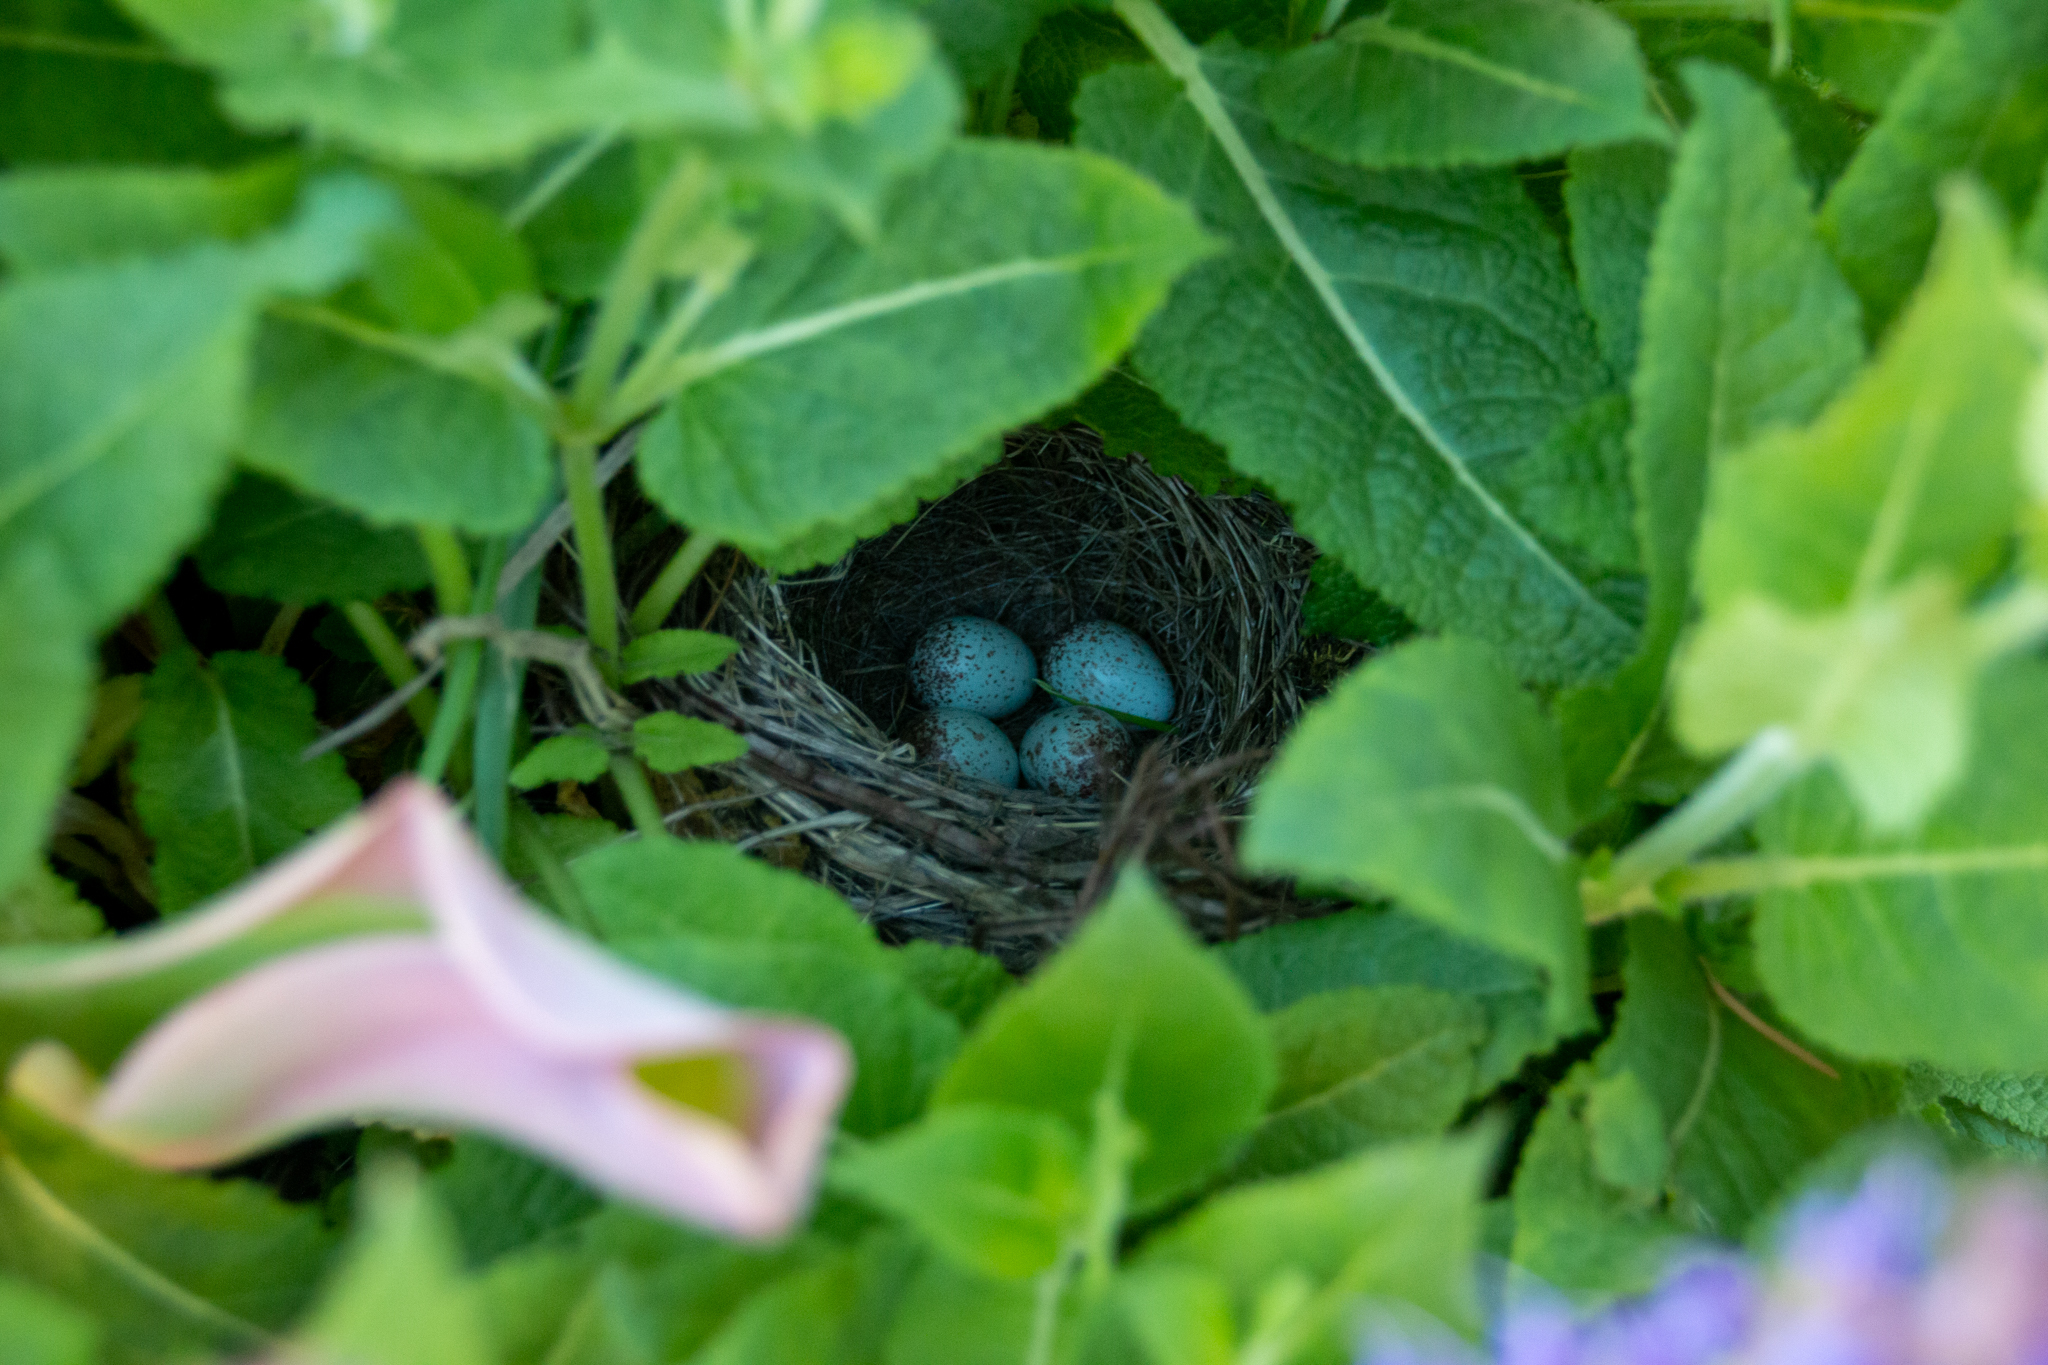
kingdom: Animalia
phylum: Chordata
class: Aves
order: Passeriformes
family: Passerellidae
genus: Junco
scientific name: Junco hyemalis
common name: Dark-eyed junco
